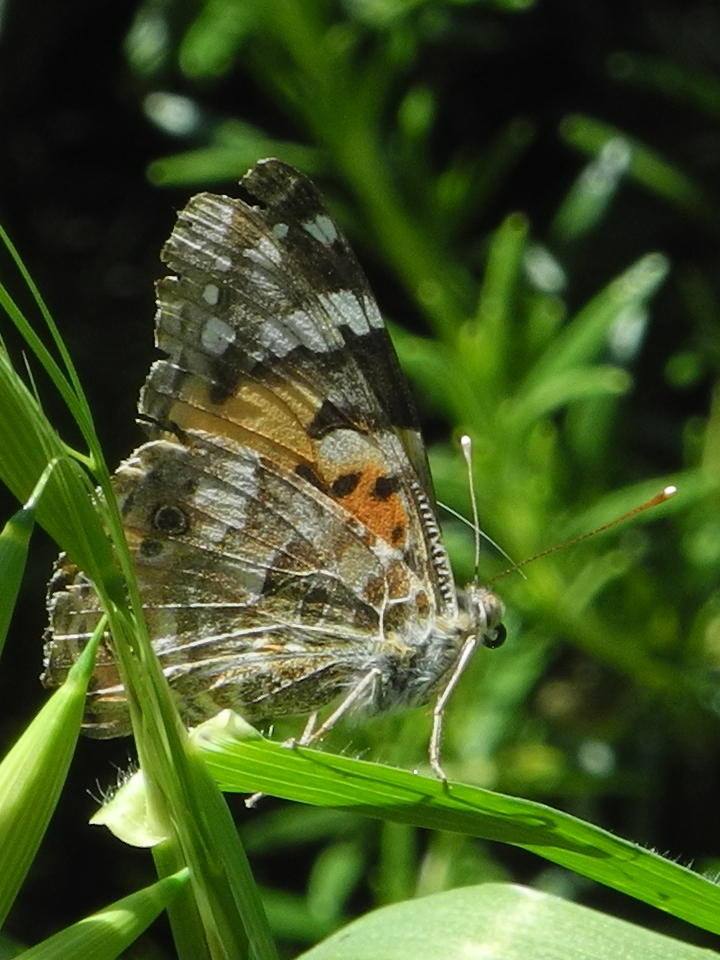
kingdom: Animalia
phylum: Arthropoda
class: Insecta
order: Lepidoptera
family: Nymphalidae
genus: Vanessa
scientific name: Vanessa cardui
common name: Painted lady
